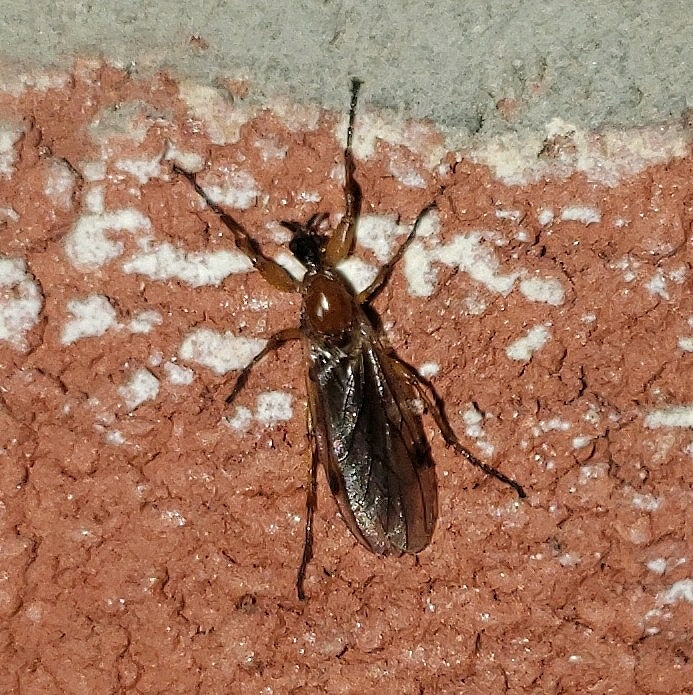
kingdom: Animalia
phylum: Arthropoda
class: Insecta
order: Diptera
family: Bibionidae
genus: Bibio
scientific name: Bibio townesi
